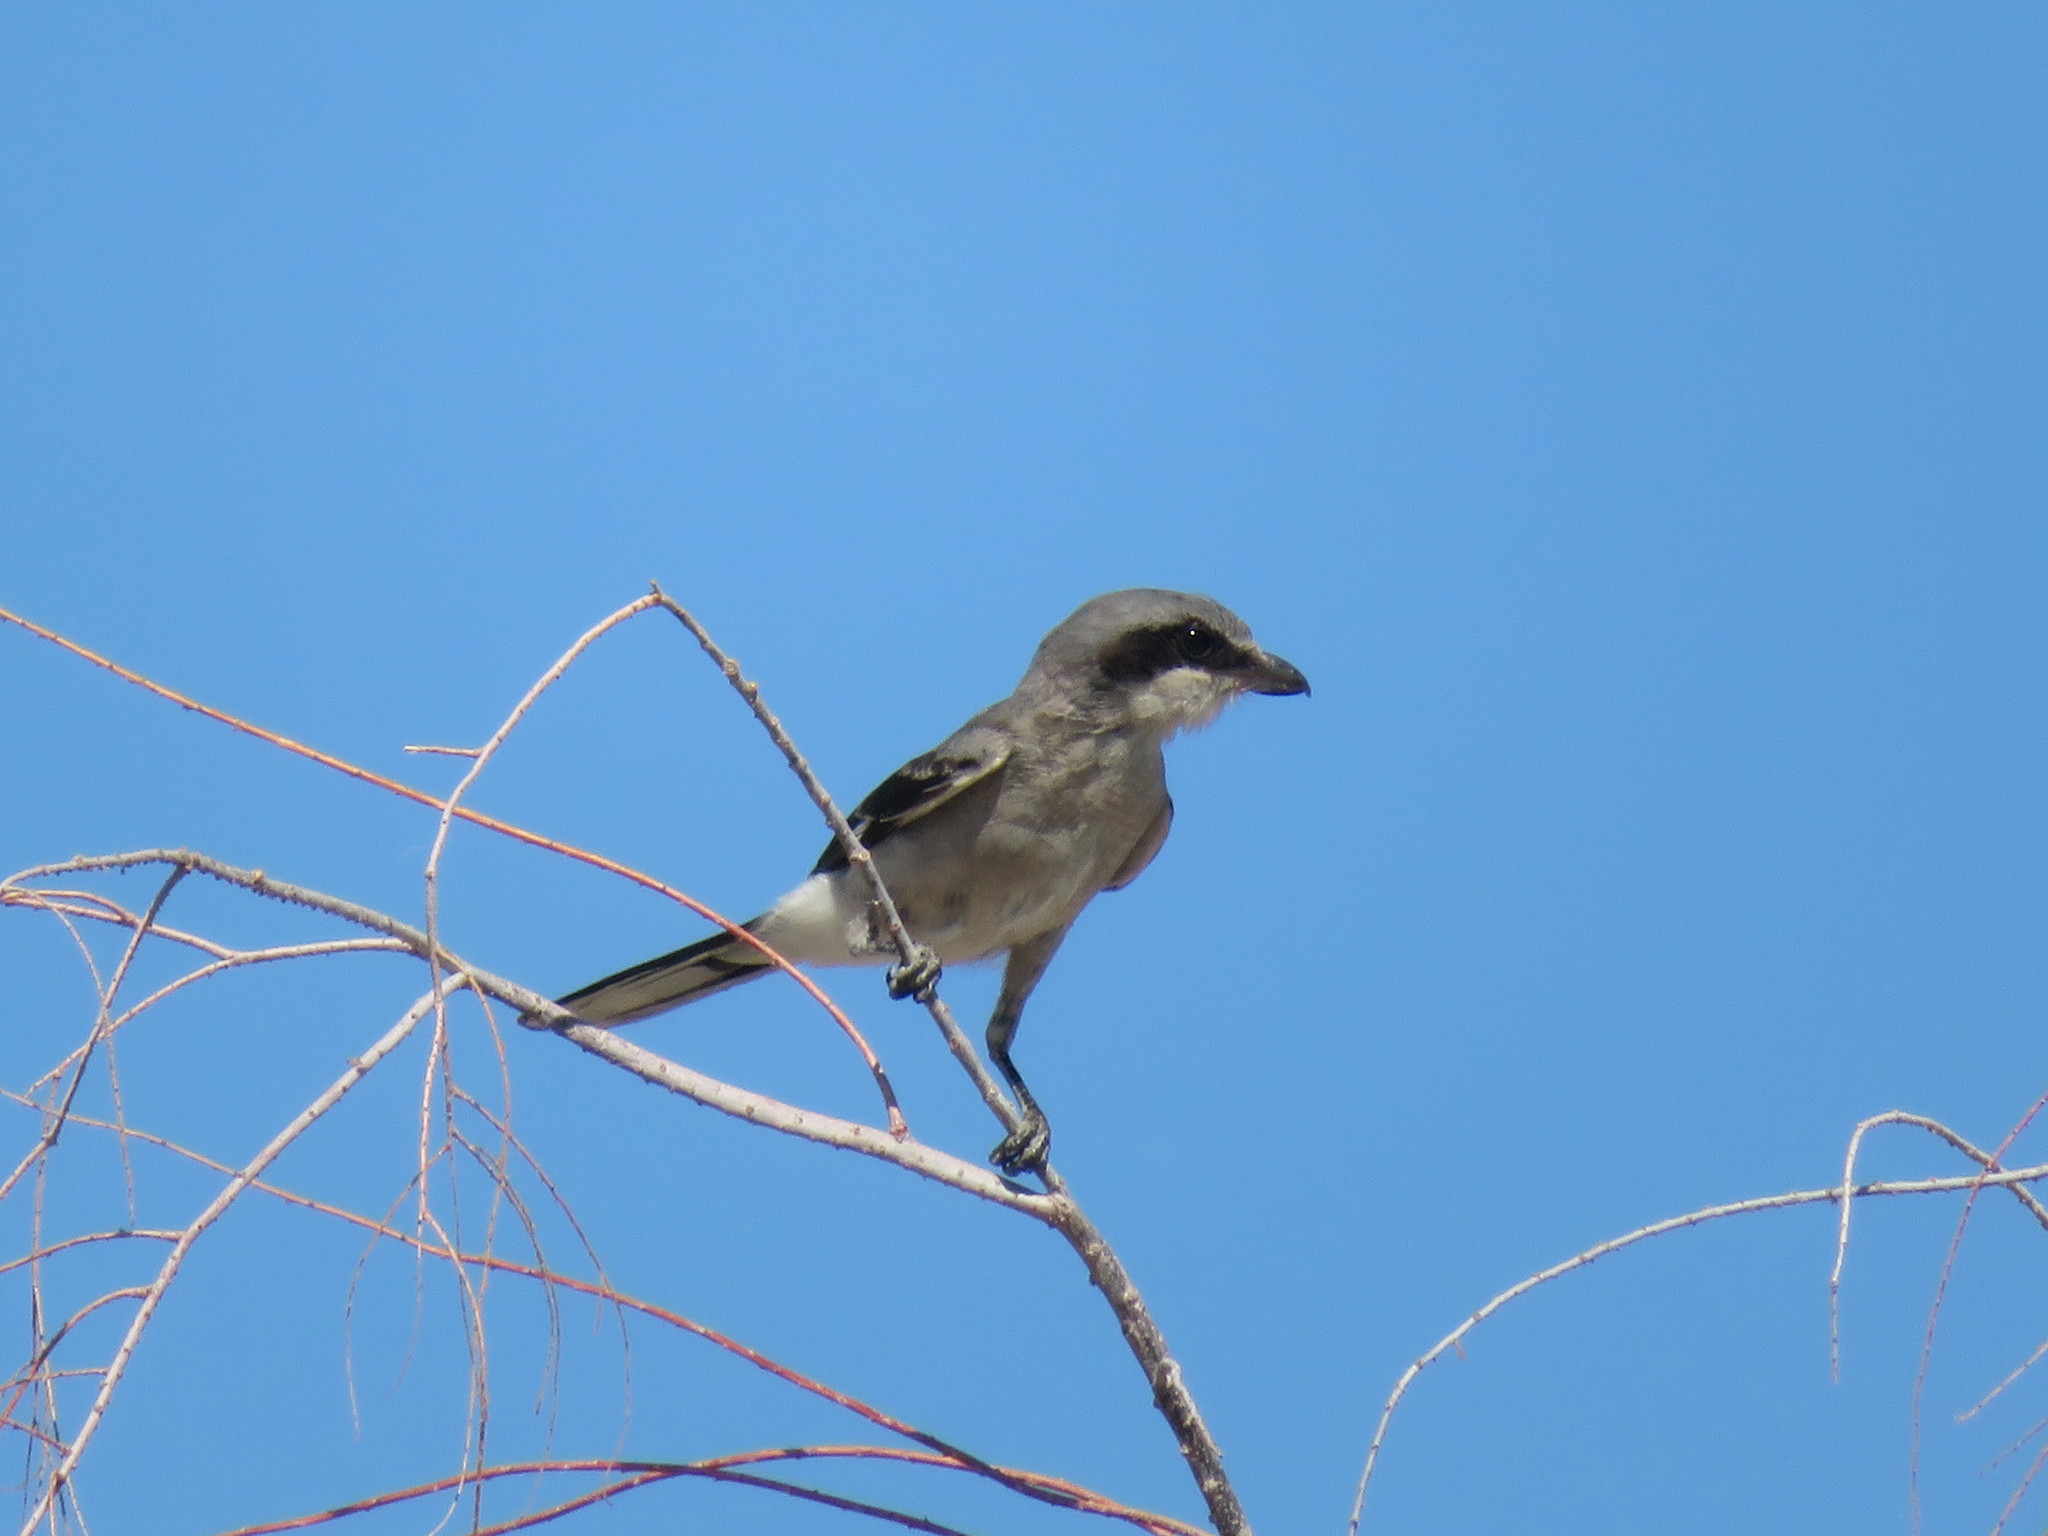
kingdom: Animalia
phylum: Chordata
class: Aves
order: Passeriformes
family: Laniidae
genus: Lanius
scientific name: Lanius ludovicianus
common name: Loggerhead shrike
